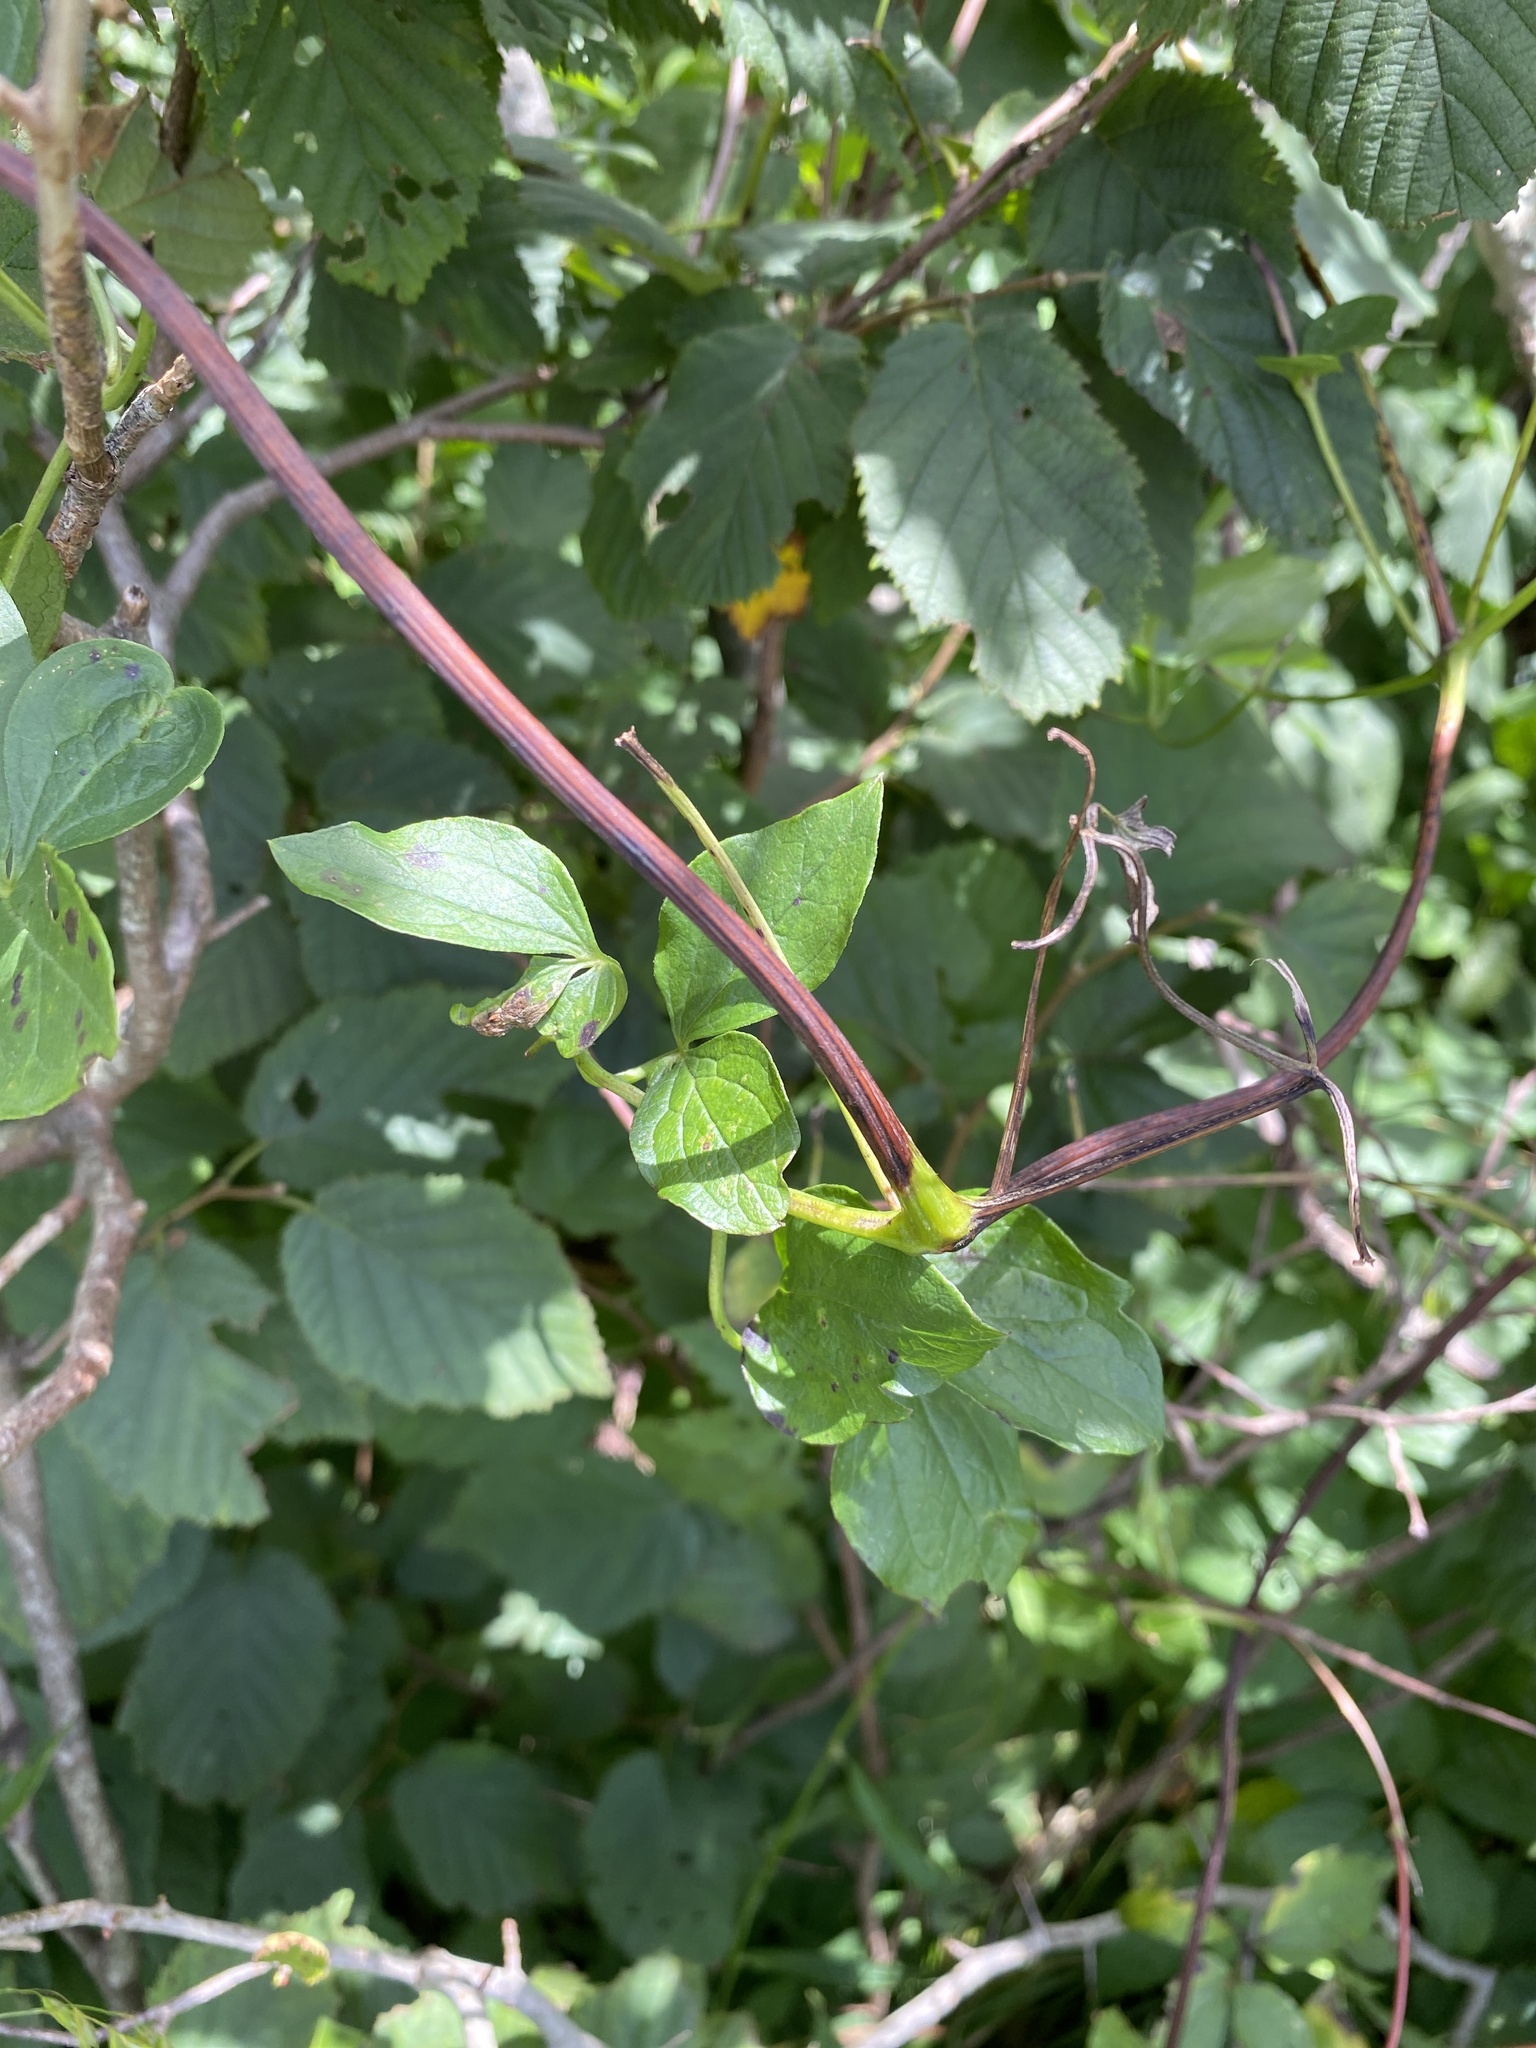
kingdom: Plantae
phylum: Tracheophyta
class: Magnoliopsida
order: Ranunculales
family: Ranunculaceae
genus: Clematis
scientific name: Clematis viorna
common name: Leather-flower
